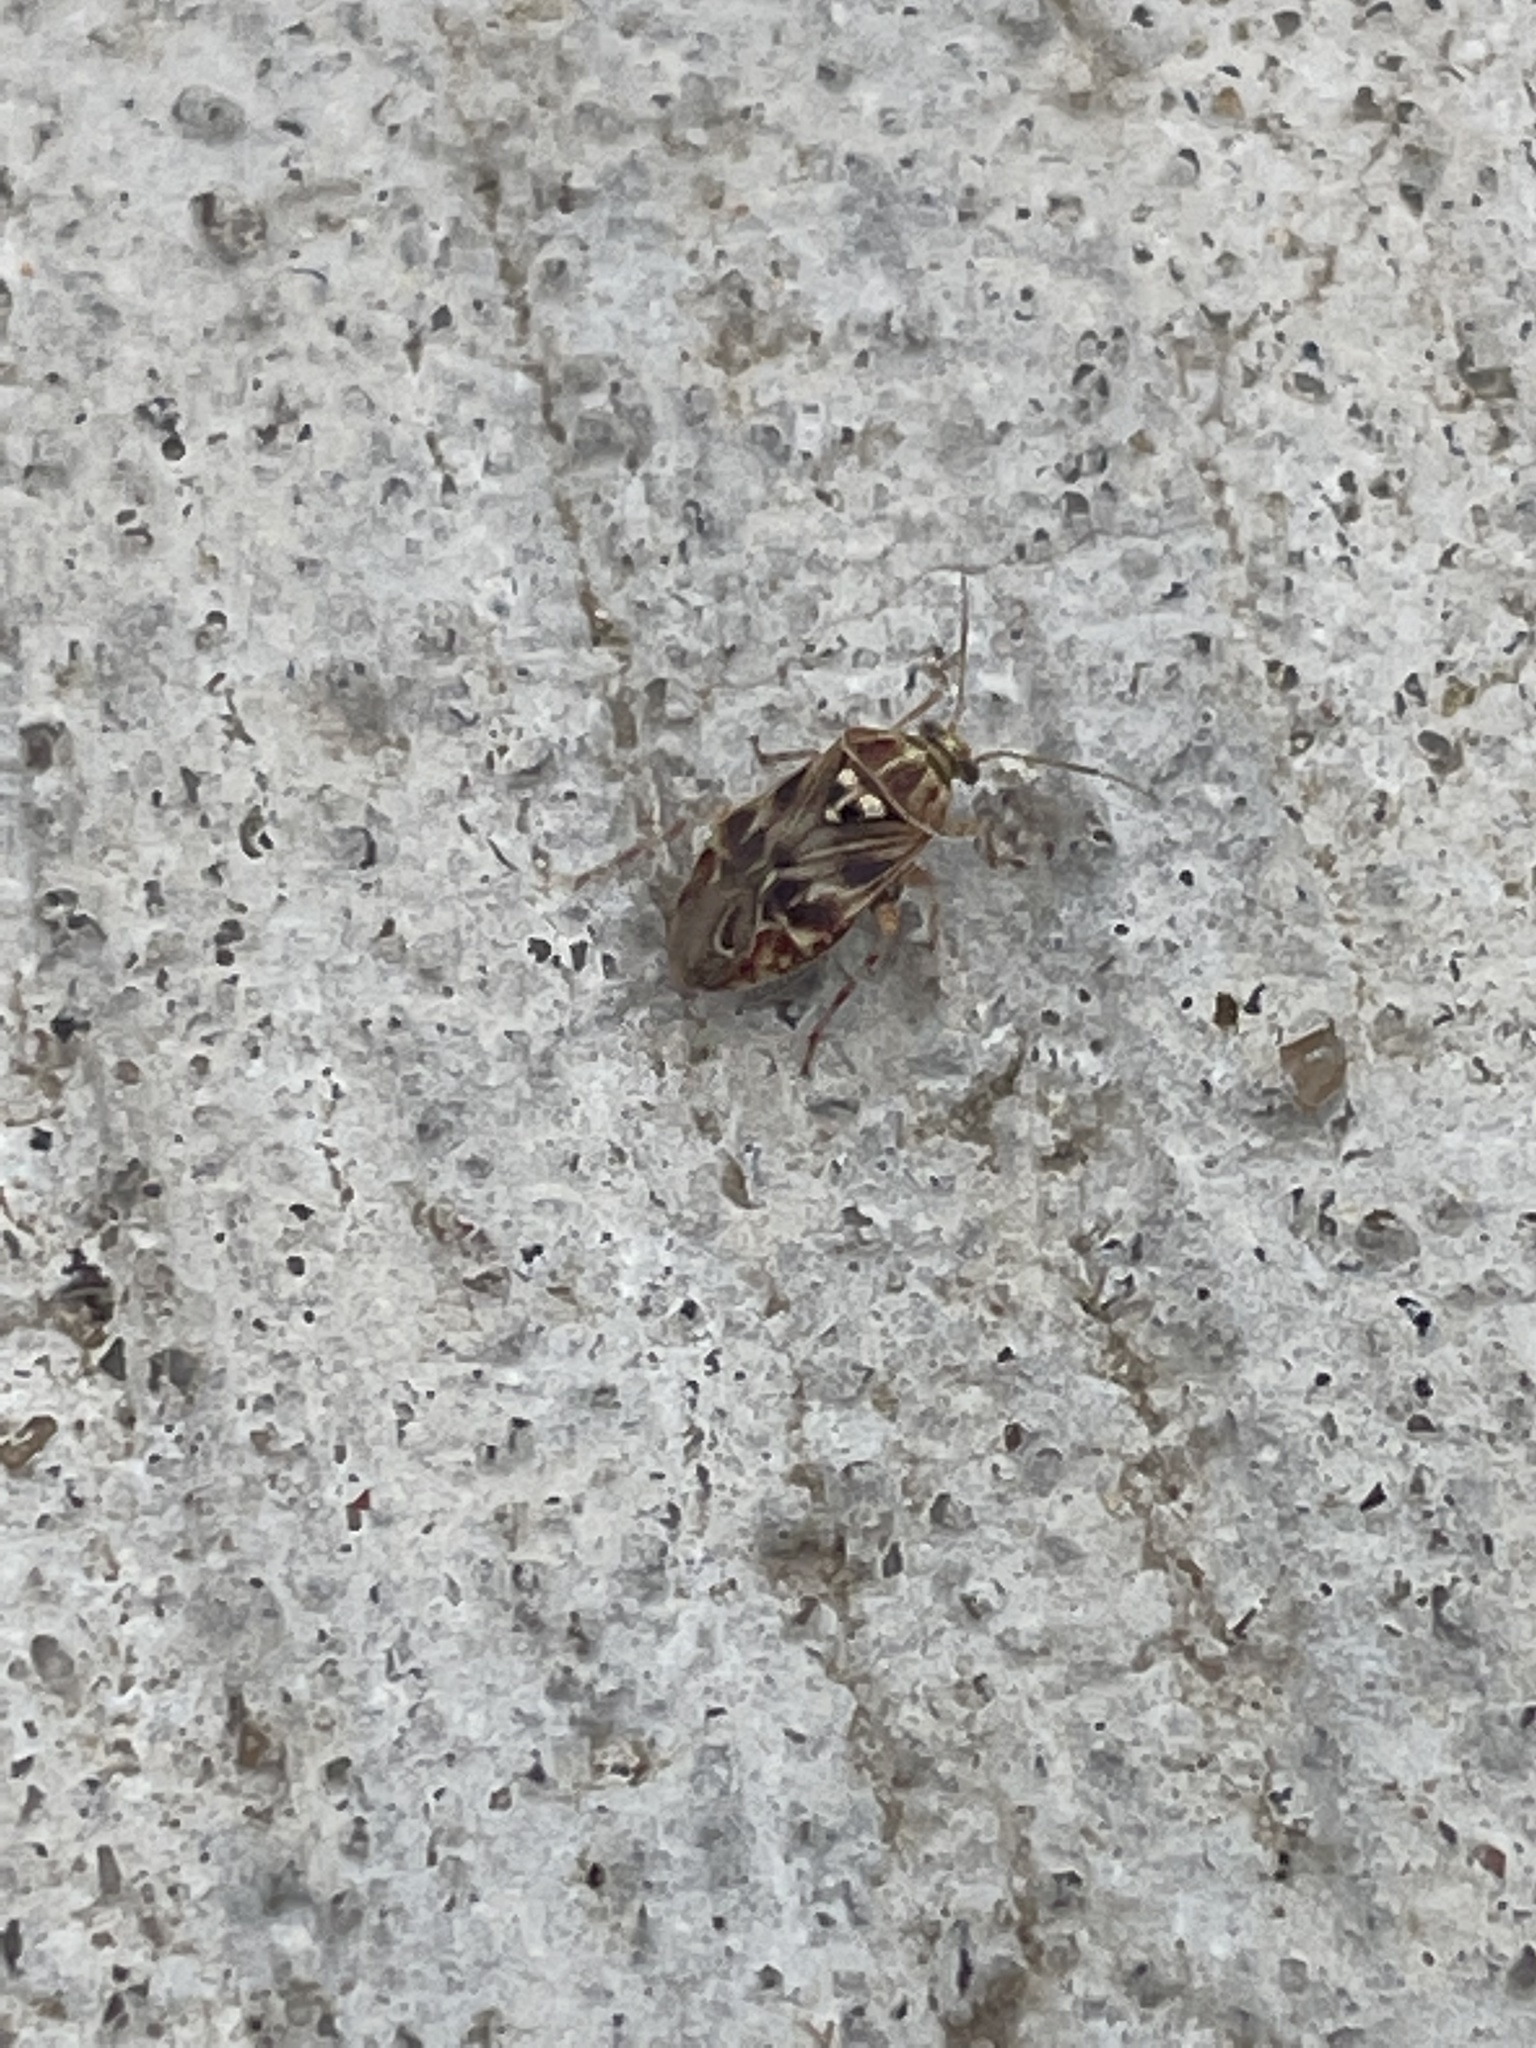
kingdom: Animalia
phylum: Arthropoda
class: Insecta
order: Hemiptera
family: Miridae
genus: Tropidosteptes
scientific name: Tropidosteptes quercicola
